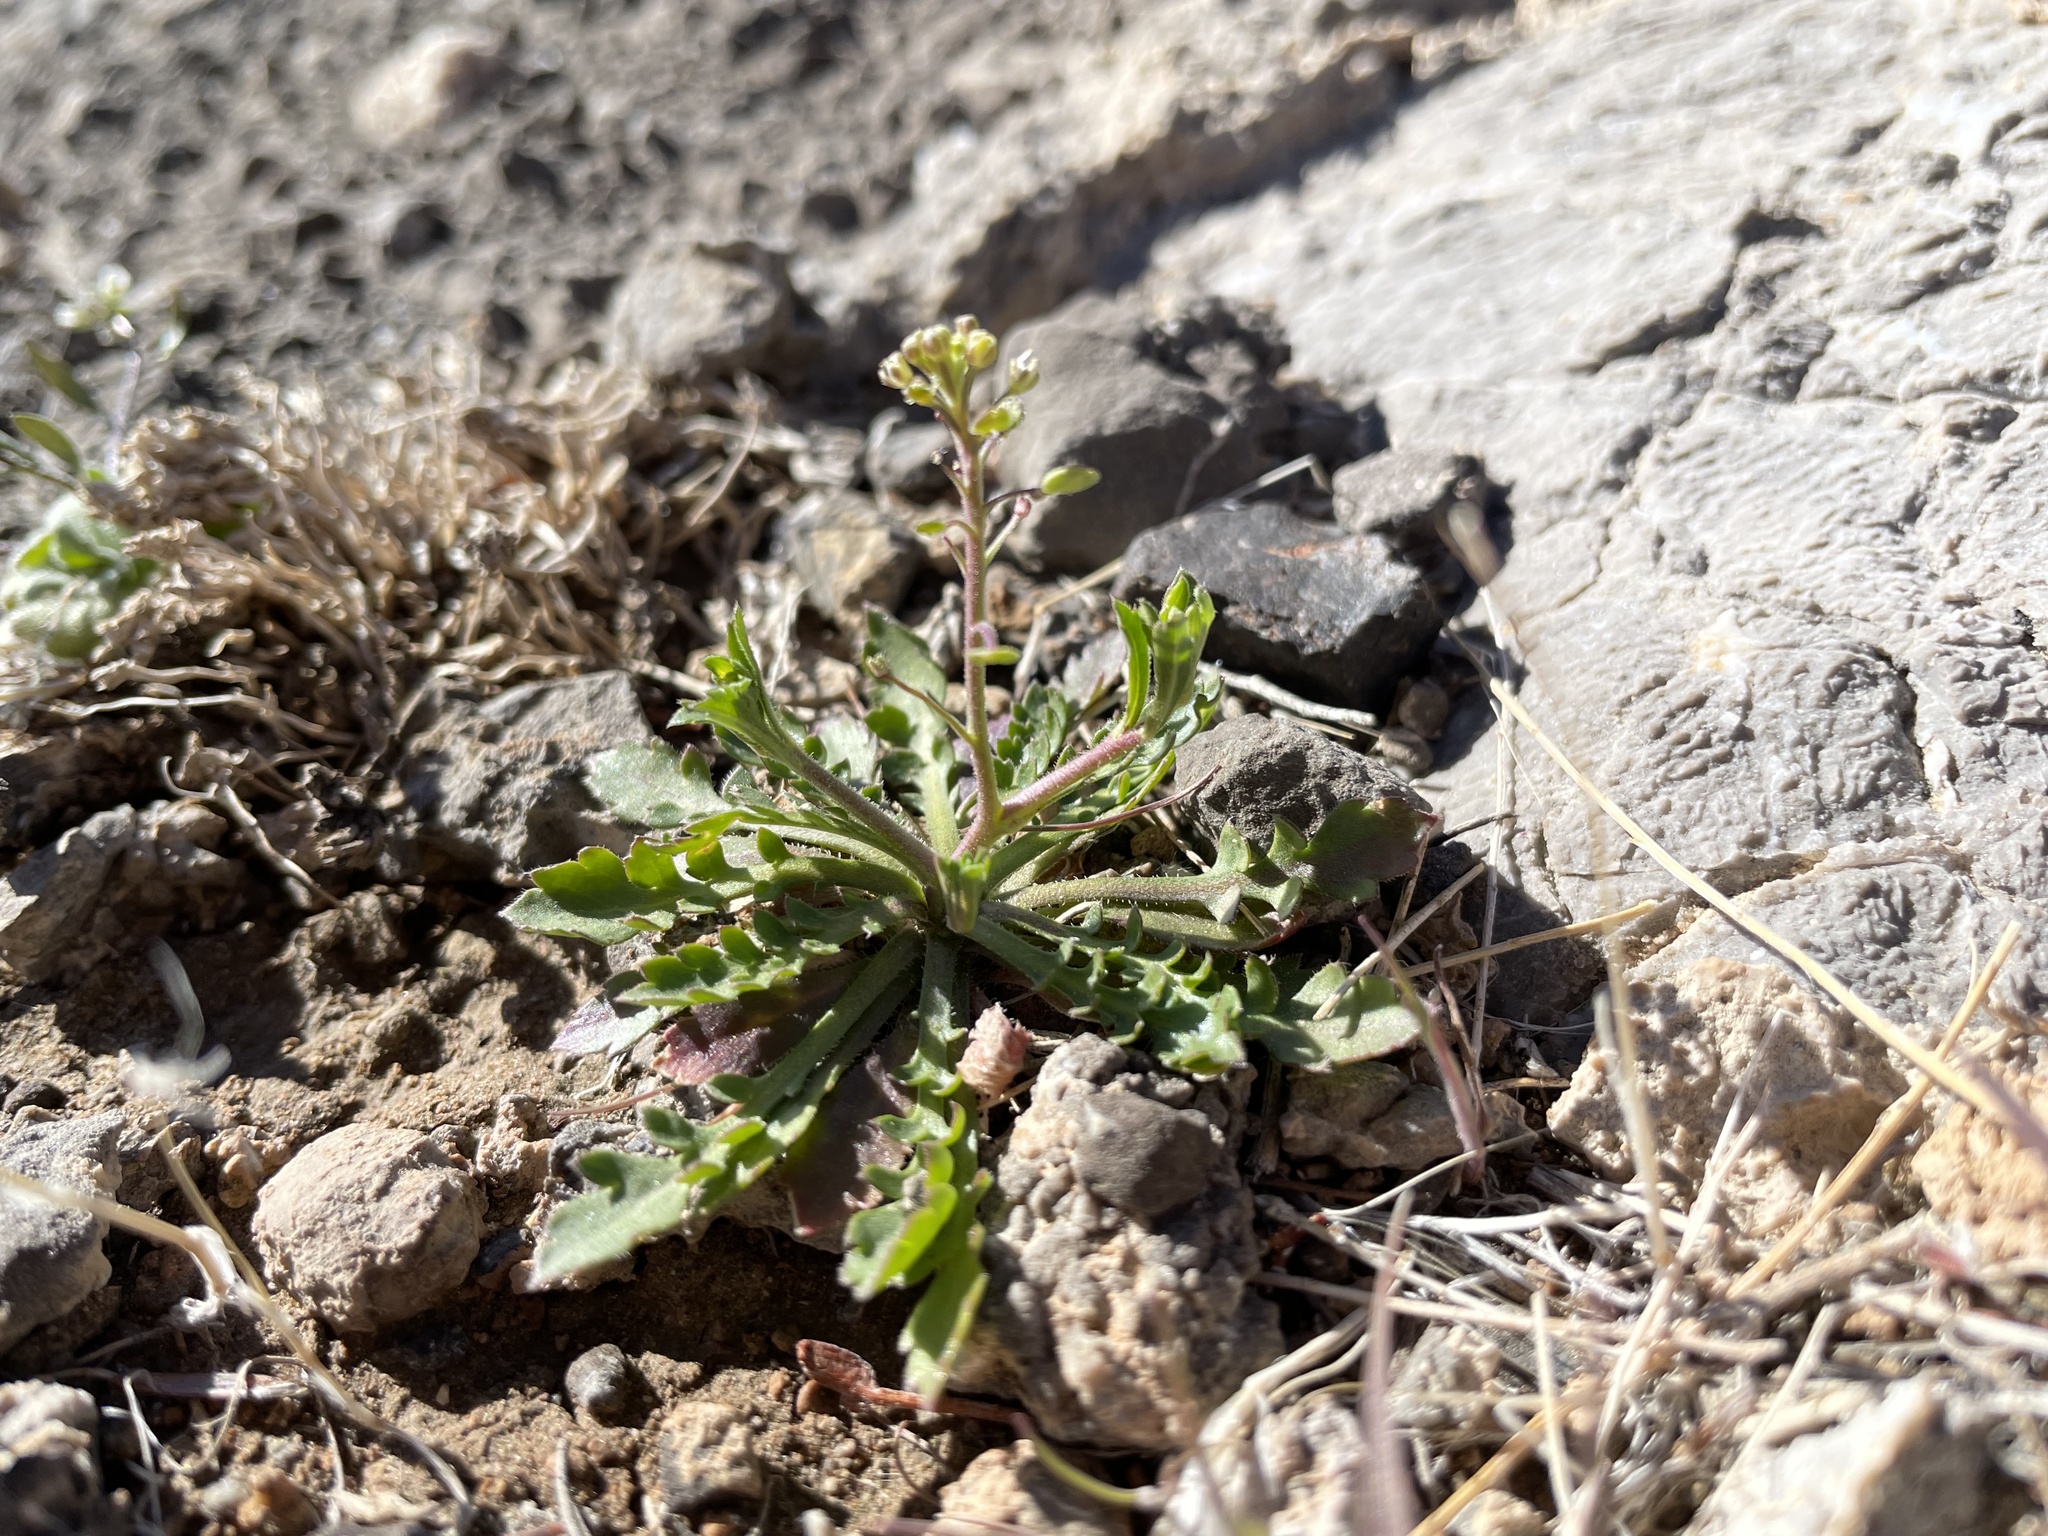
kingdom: Plantae
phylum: Tracheophyta
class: Magnoliopsida
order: Brassicales
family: Brassicaceae
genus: Lepidium
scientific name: Lepidium lasiocarpum
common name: Hairy-pod pepperwort
